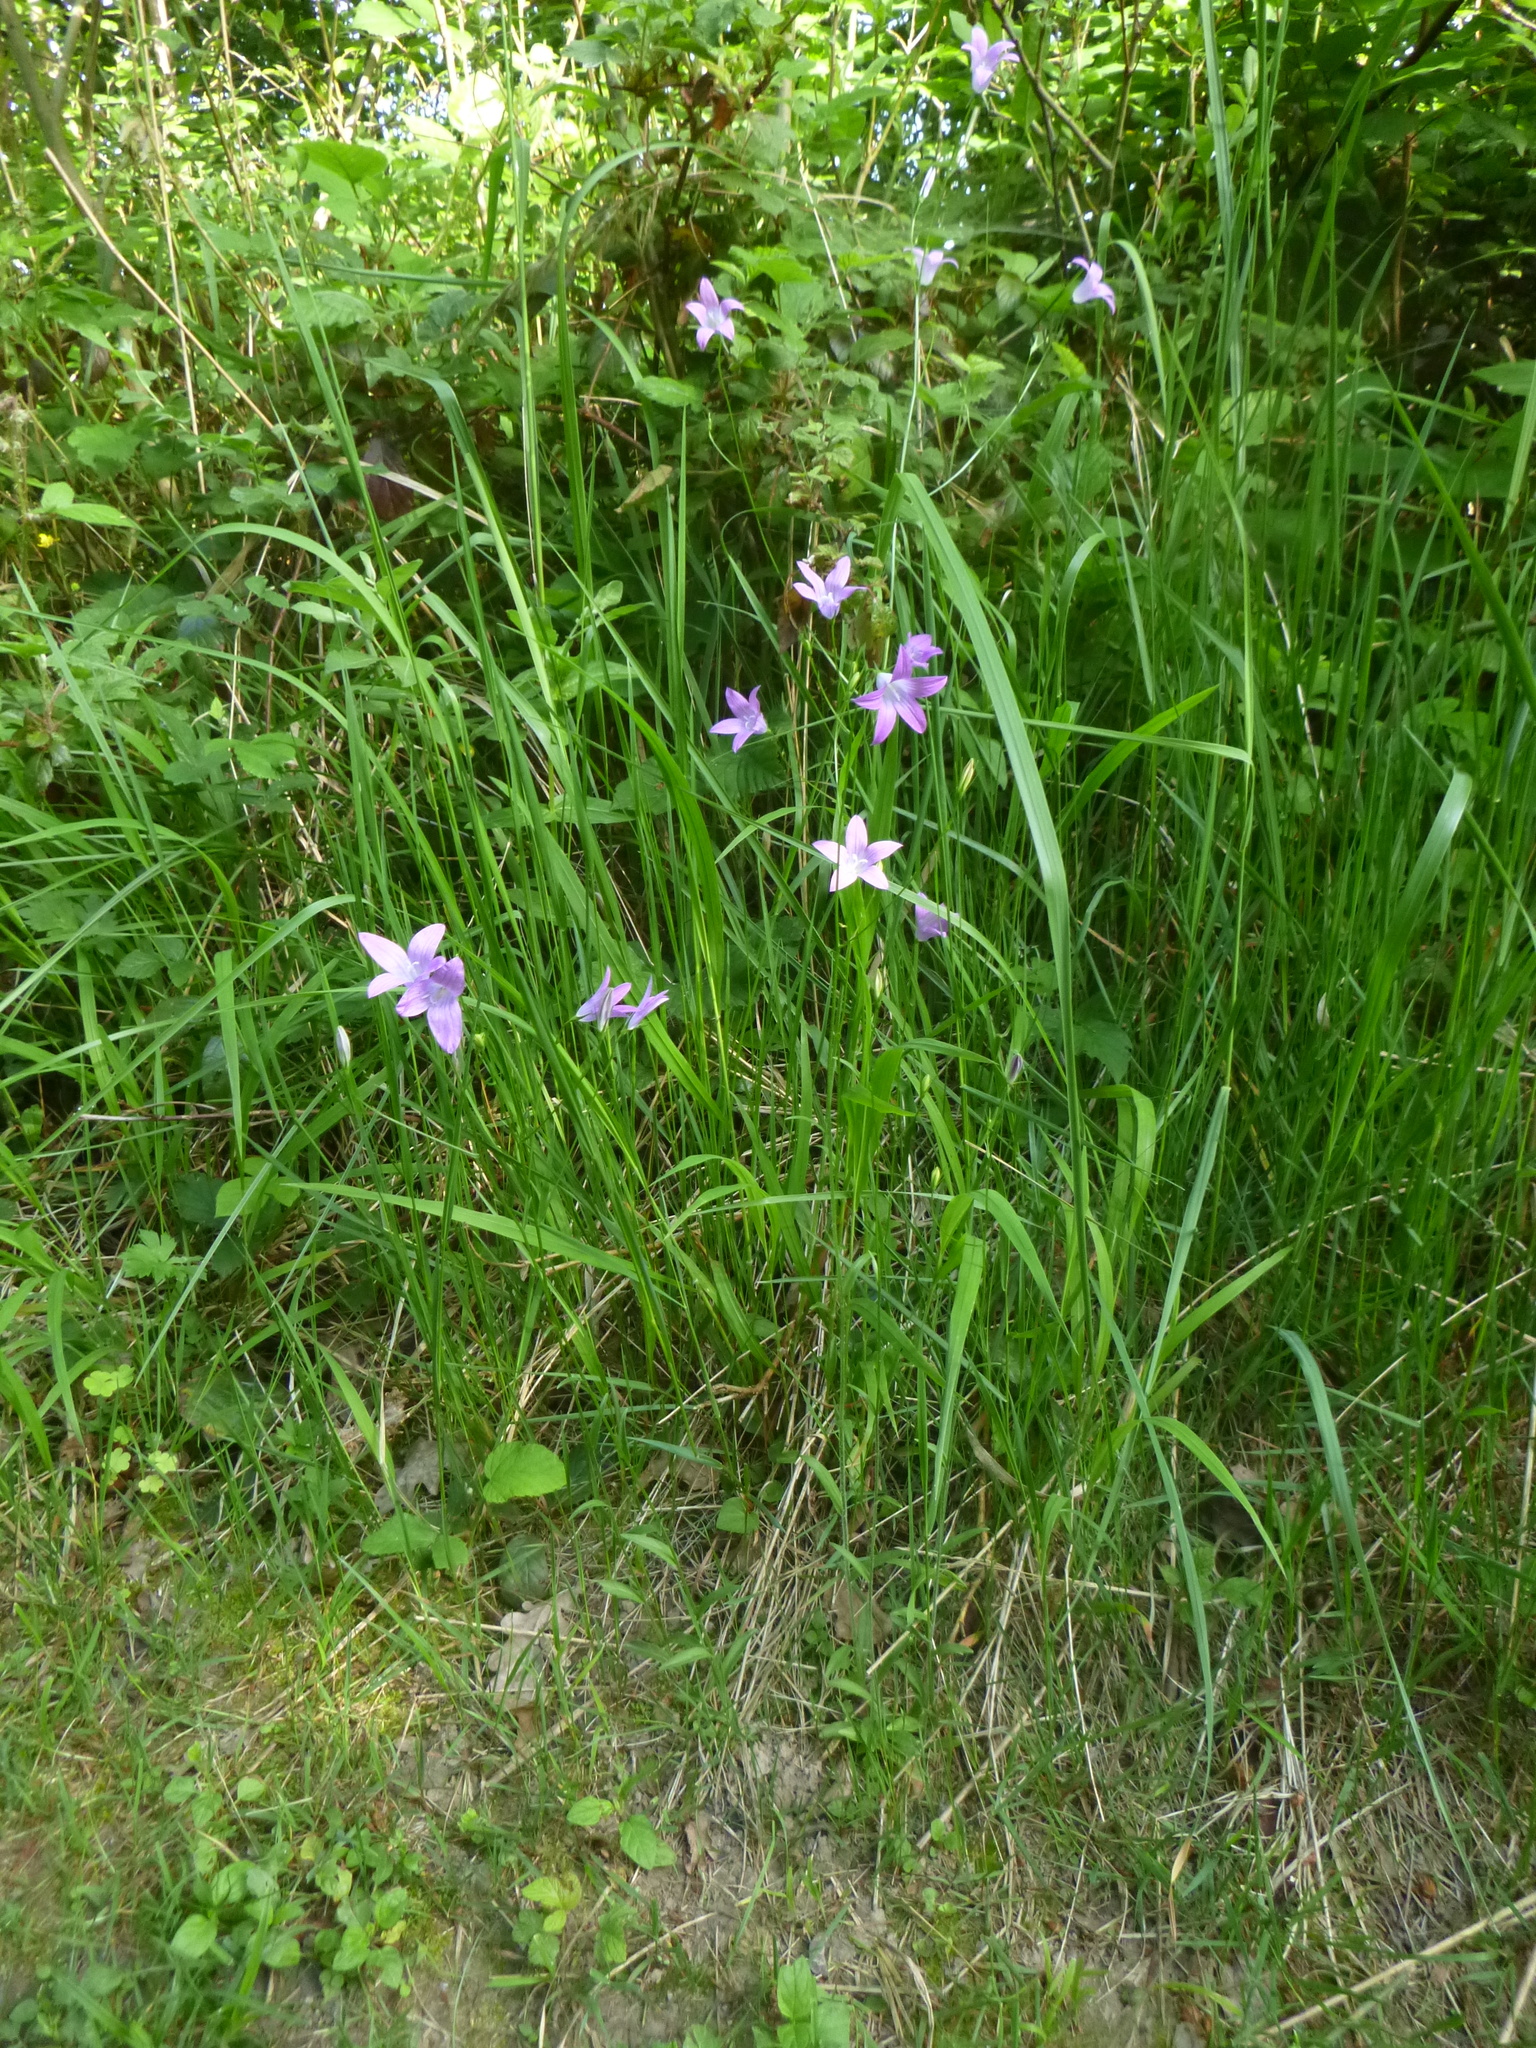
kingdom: Plantae
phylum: Tracheophyta
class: Magnoliopsida
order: Asterales
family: Campanulaceae
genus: Campanula
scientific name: Campanula patula
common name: Spreading bellflower
